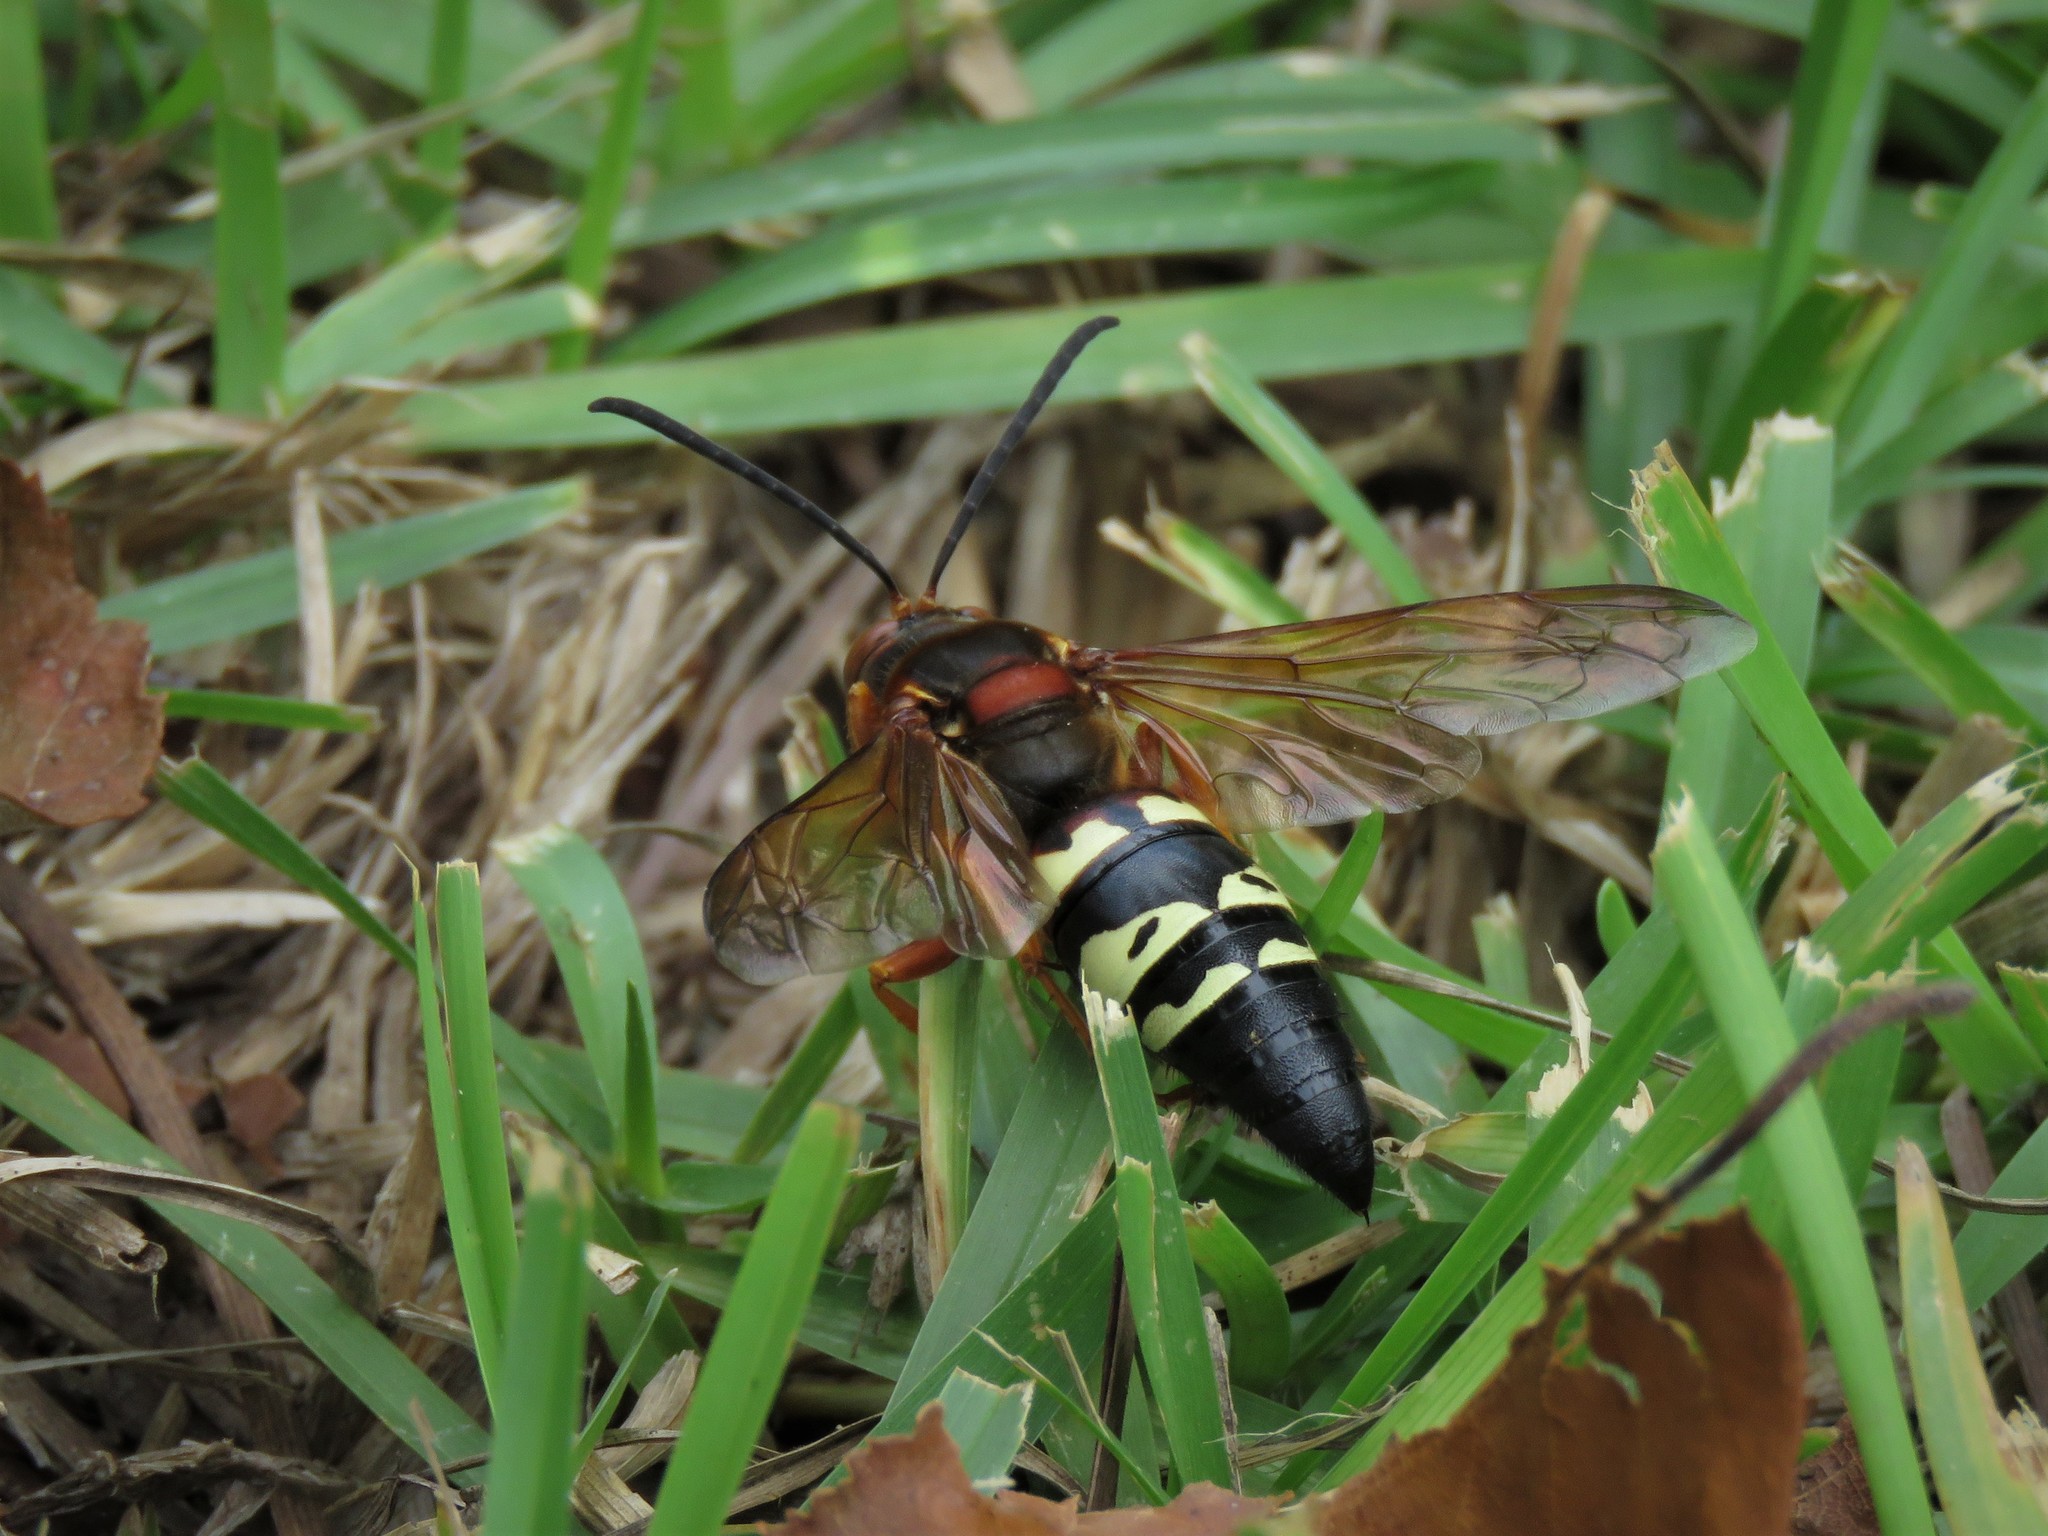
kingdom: Animalia
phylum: Arthropoda
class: Insecta
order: Hymenoptera
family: Crabronidae
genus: Sphecius
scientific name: Sphecius speciosus
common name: Cicada killer
